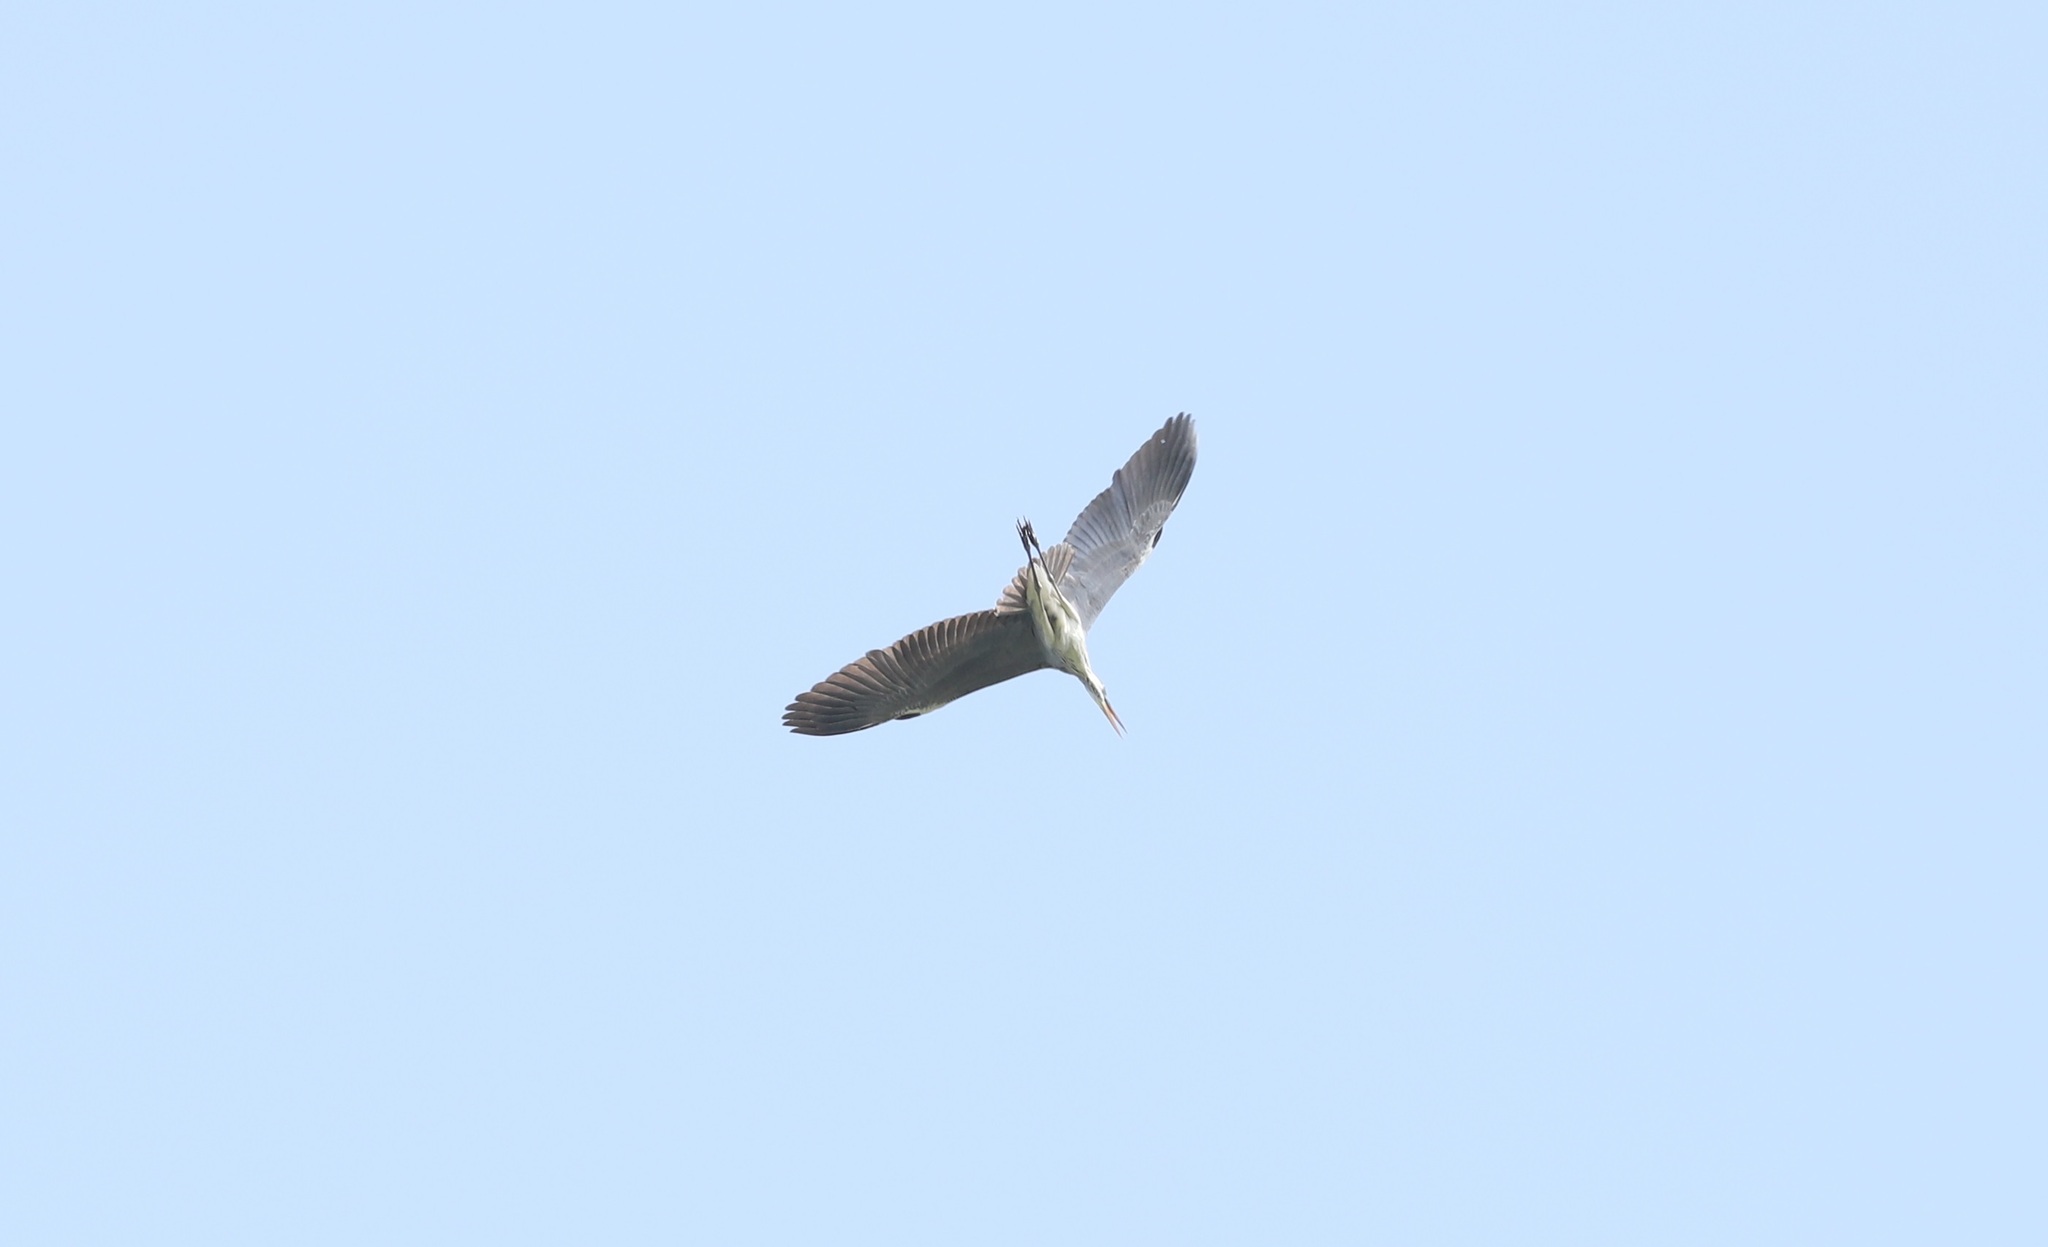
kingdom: Animalia
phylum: Chordata
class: Aves
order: Pelecaniformes
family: Ardeidae
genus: Ardea
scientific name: Ardea cinerea
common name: Grey heron
